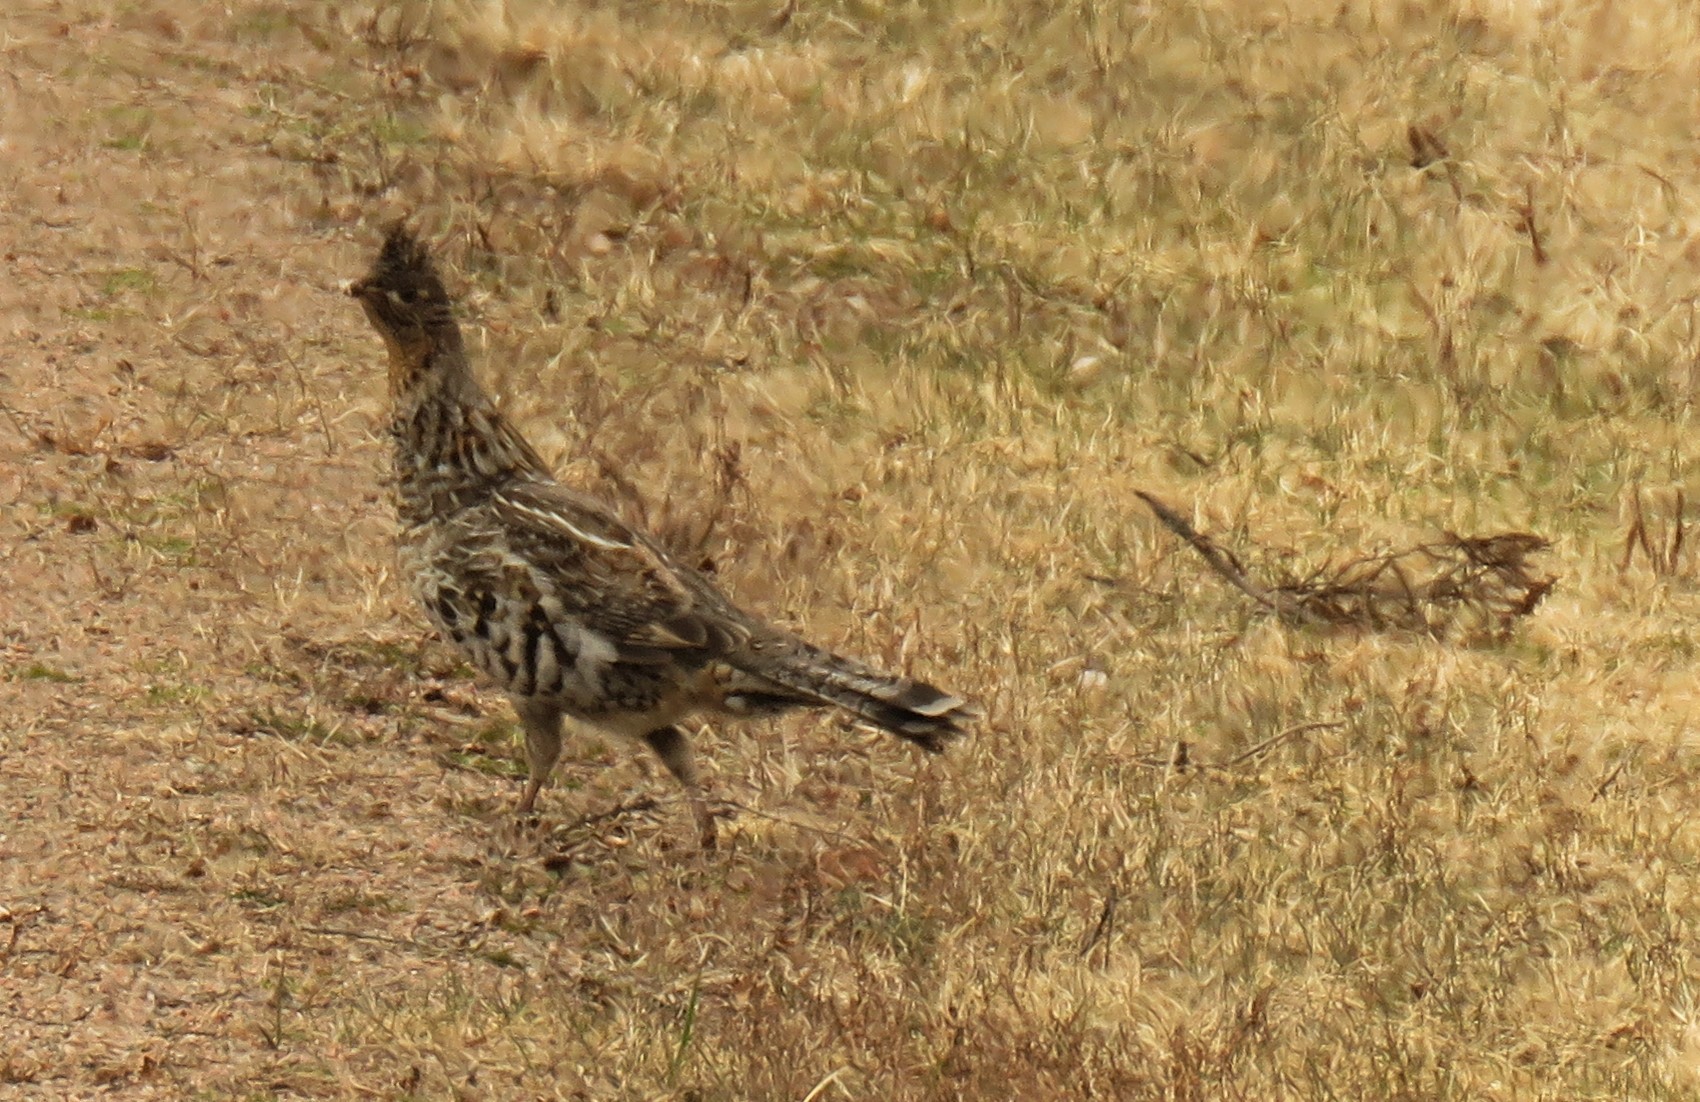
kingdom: Animalia
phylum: Chordata
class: Aves
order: Galliformes
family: Phasianidae
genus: Bonasa
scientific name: Bonasa umbellus
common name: Ruffed grouse
